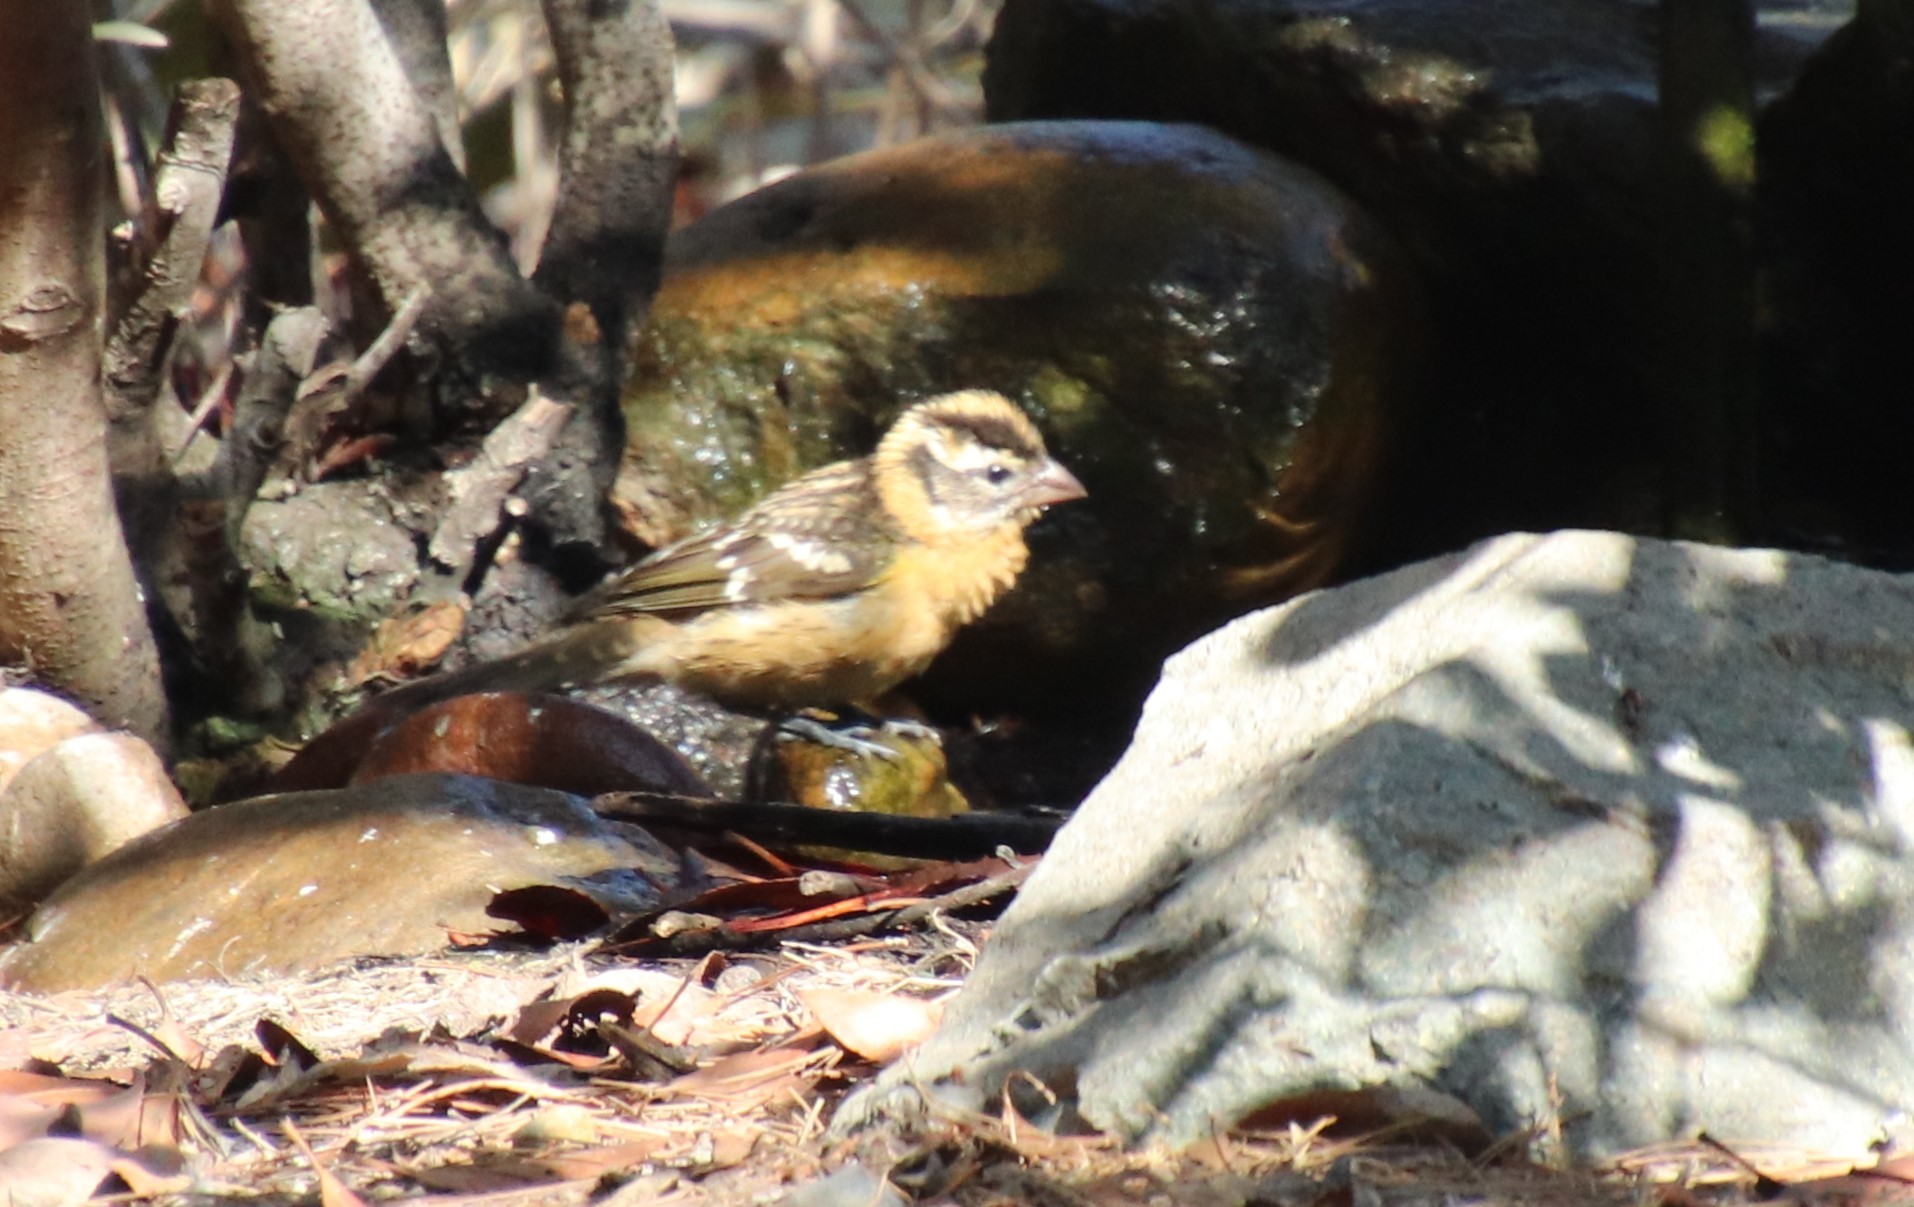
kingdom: Animalia
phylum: Chordata
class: Aves
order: Passeriformes
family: Cardinalidae
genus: Pheucticus
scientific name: Pheucticus melanocephalus
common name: Black-headed grosbeak
